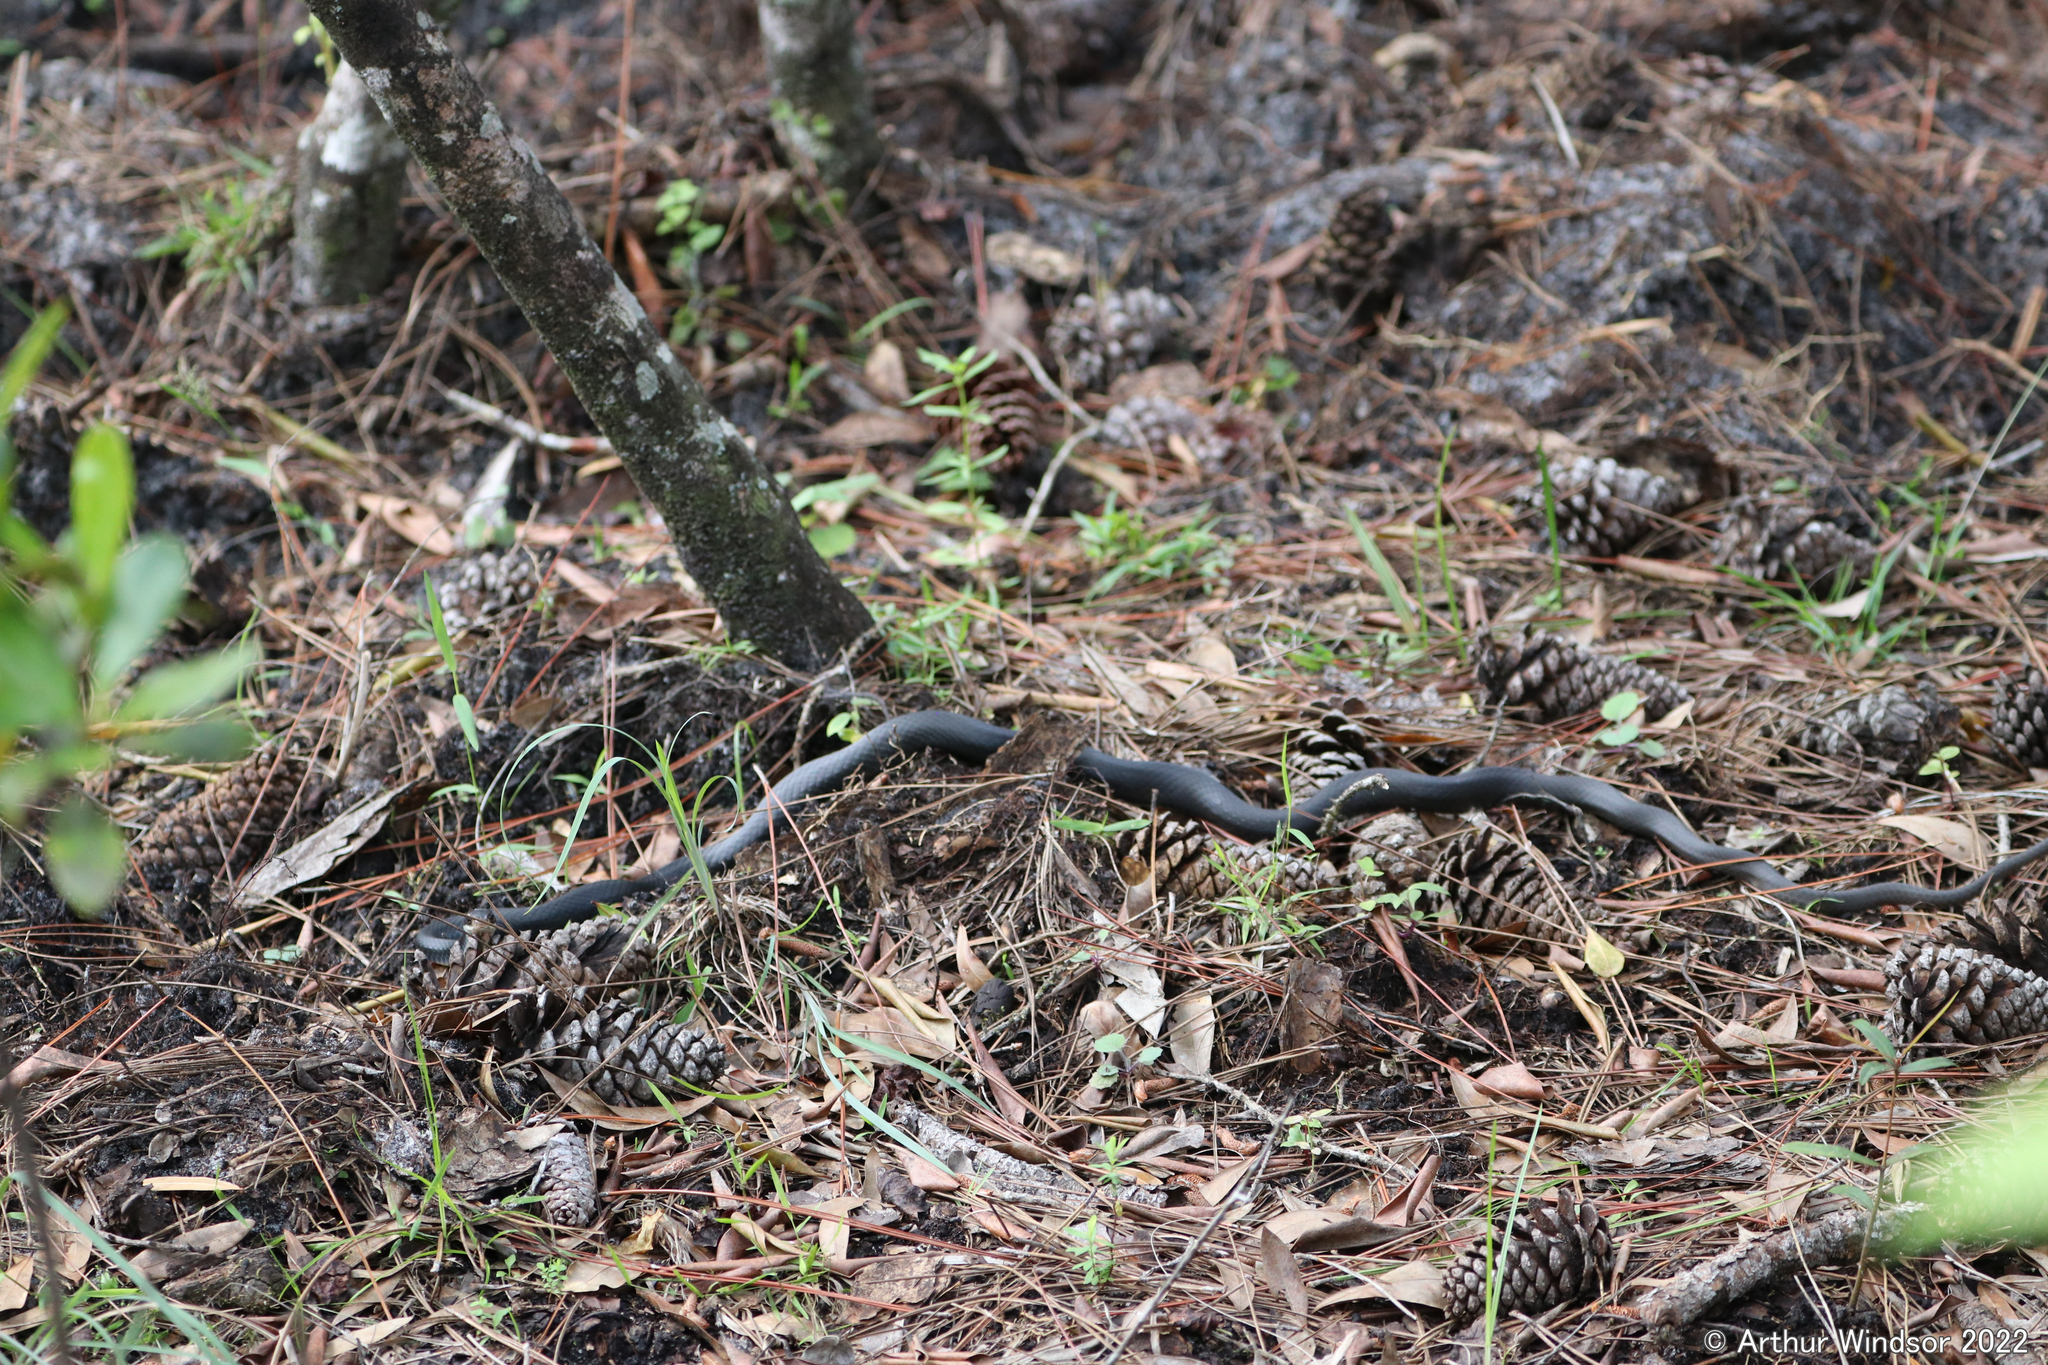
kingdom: Animalia
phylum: Chordata
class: Squamata
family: Colubridae
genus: Coluber
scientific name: Coluber constrictor
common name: Eastern racer
